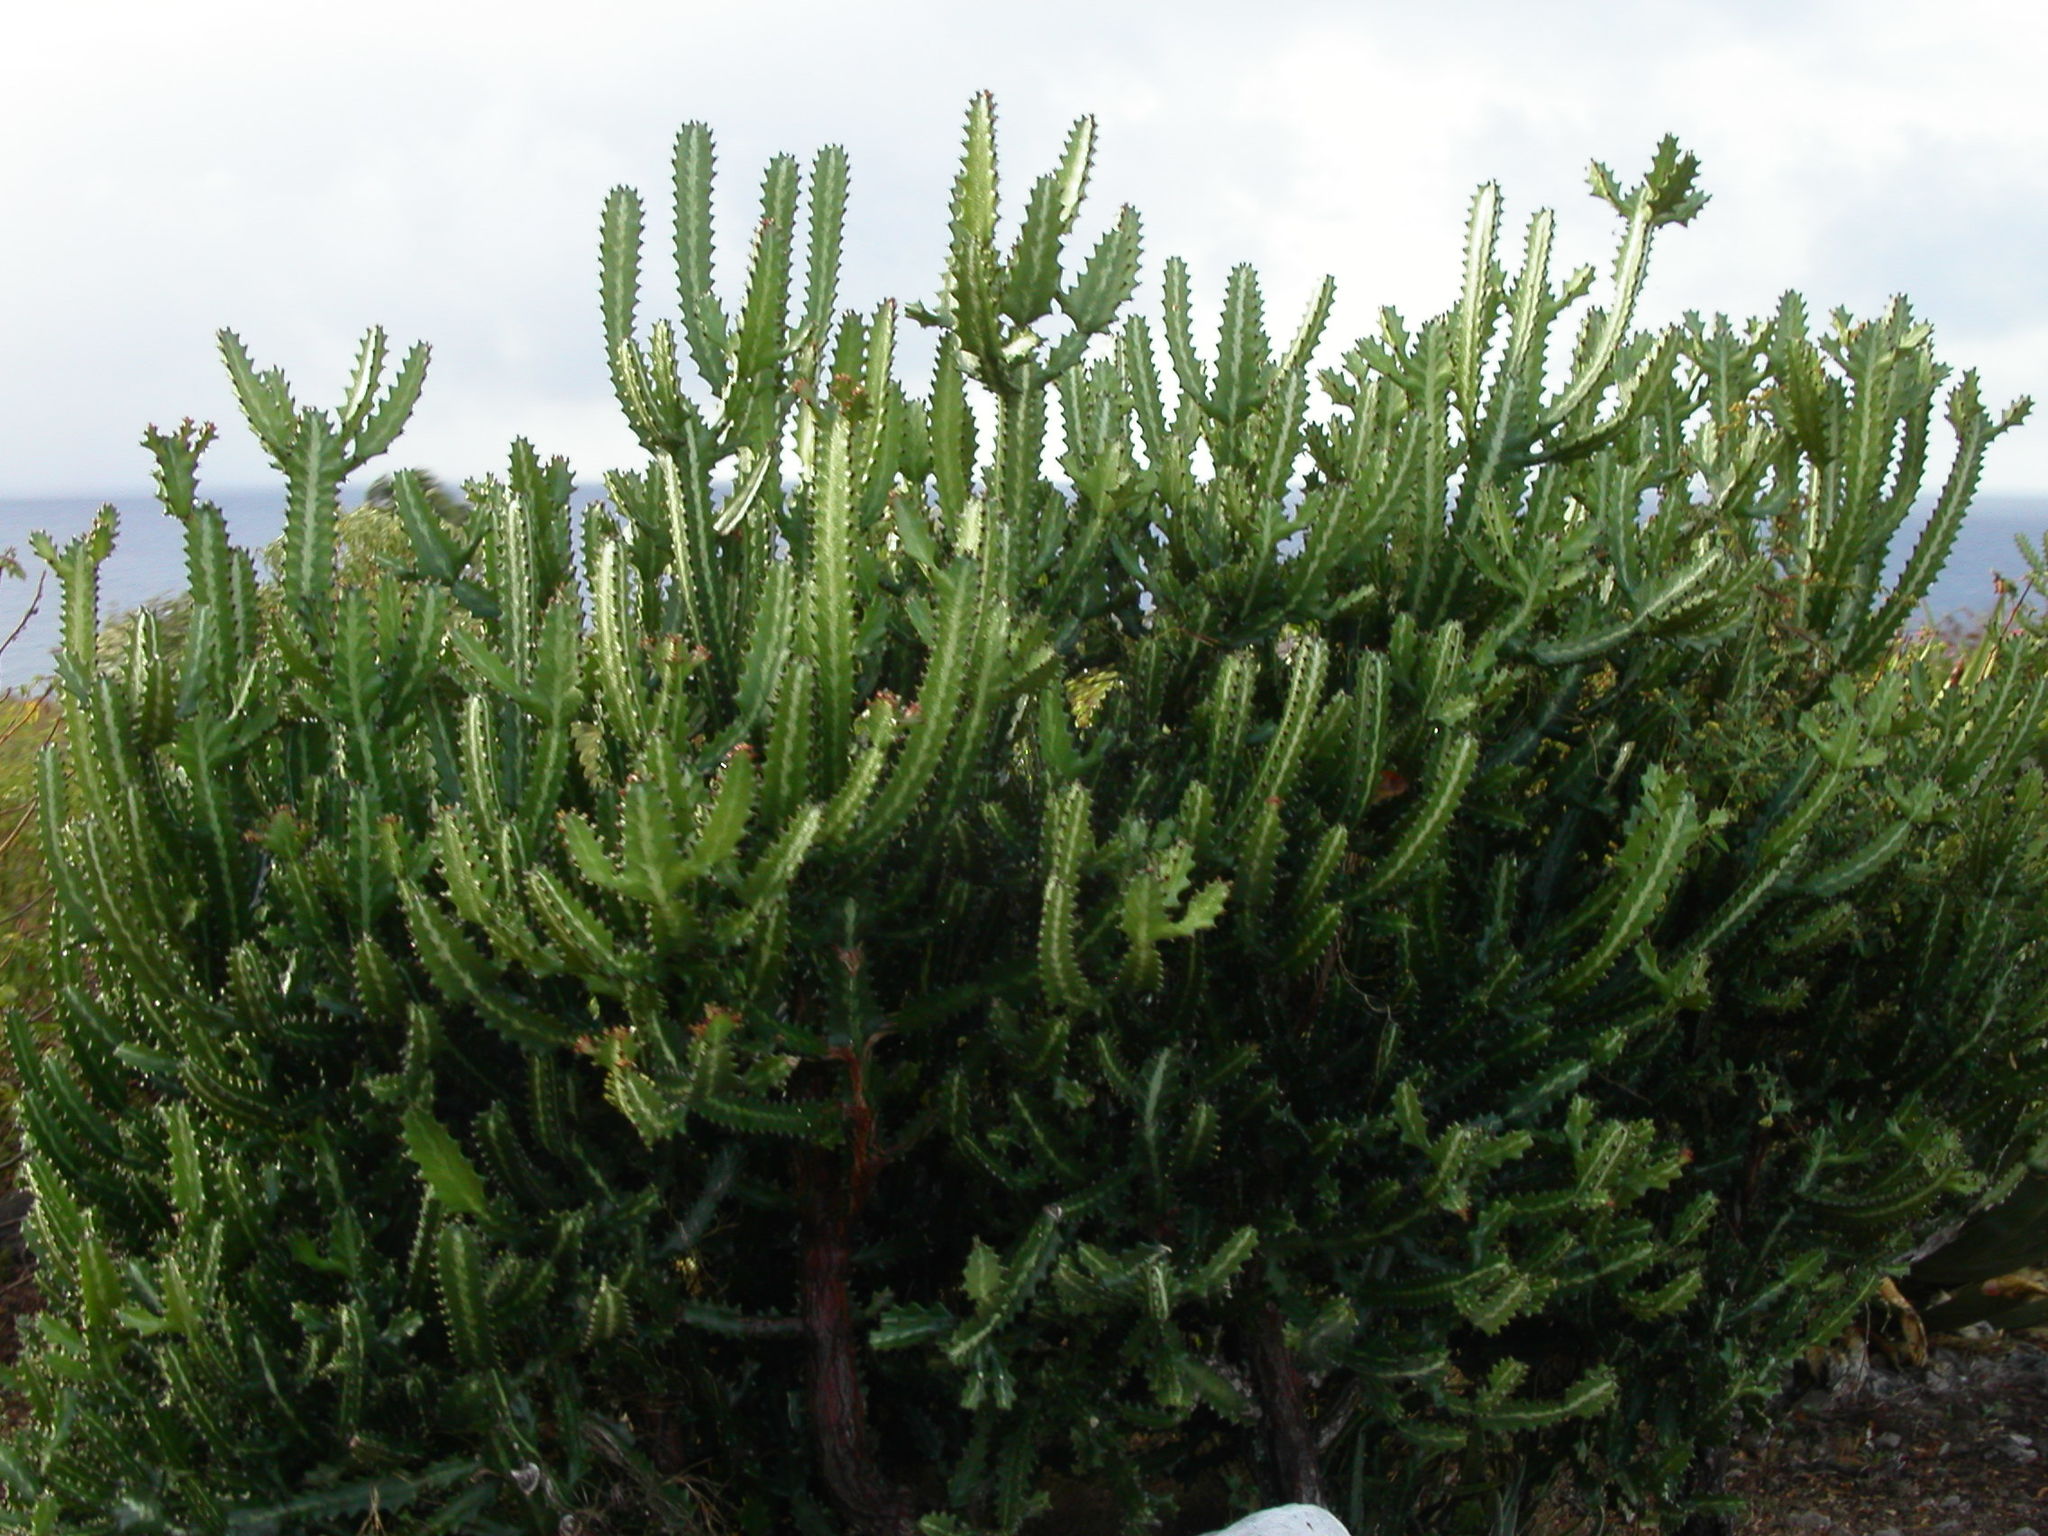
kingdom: Plantae
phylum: Tracheophyta
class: Magnoliopsida
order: Malpighiales
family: Euphorbiaceae
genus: Euphorbia
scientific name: Euphorbia lactea
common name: Mottled spurge
